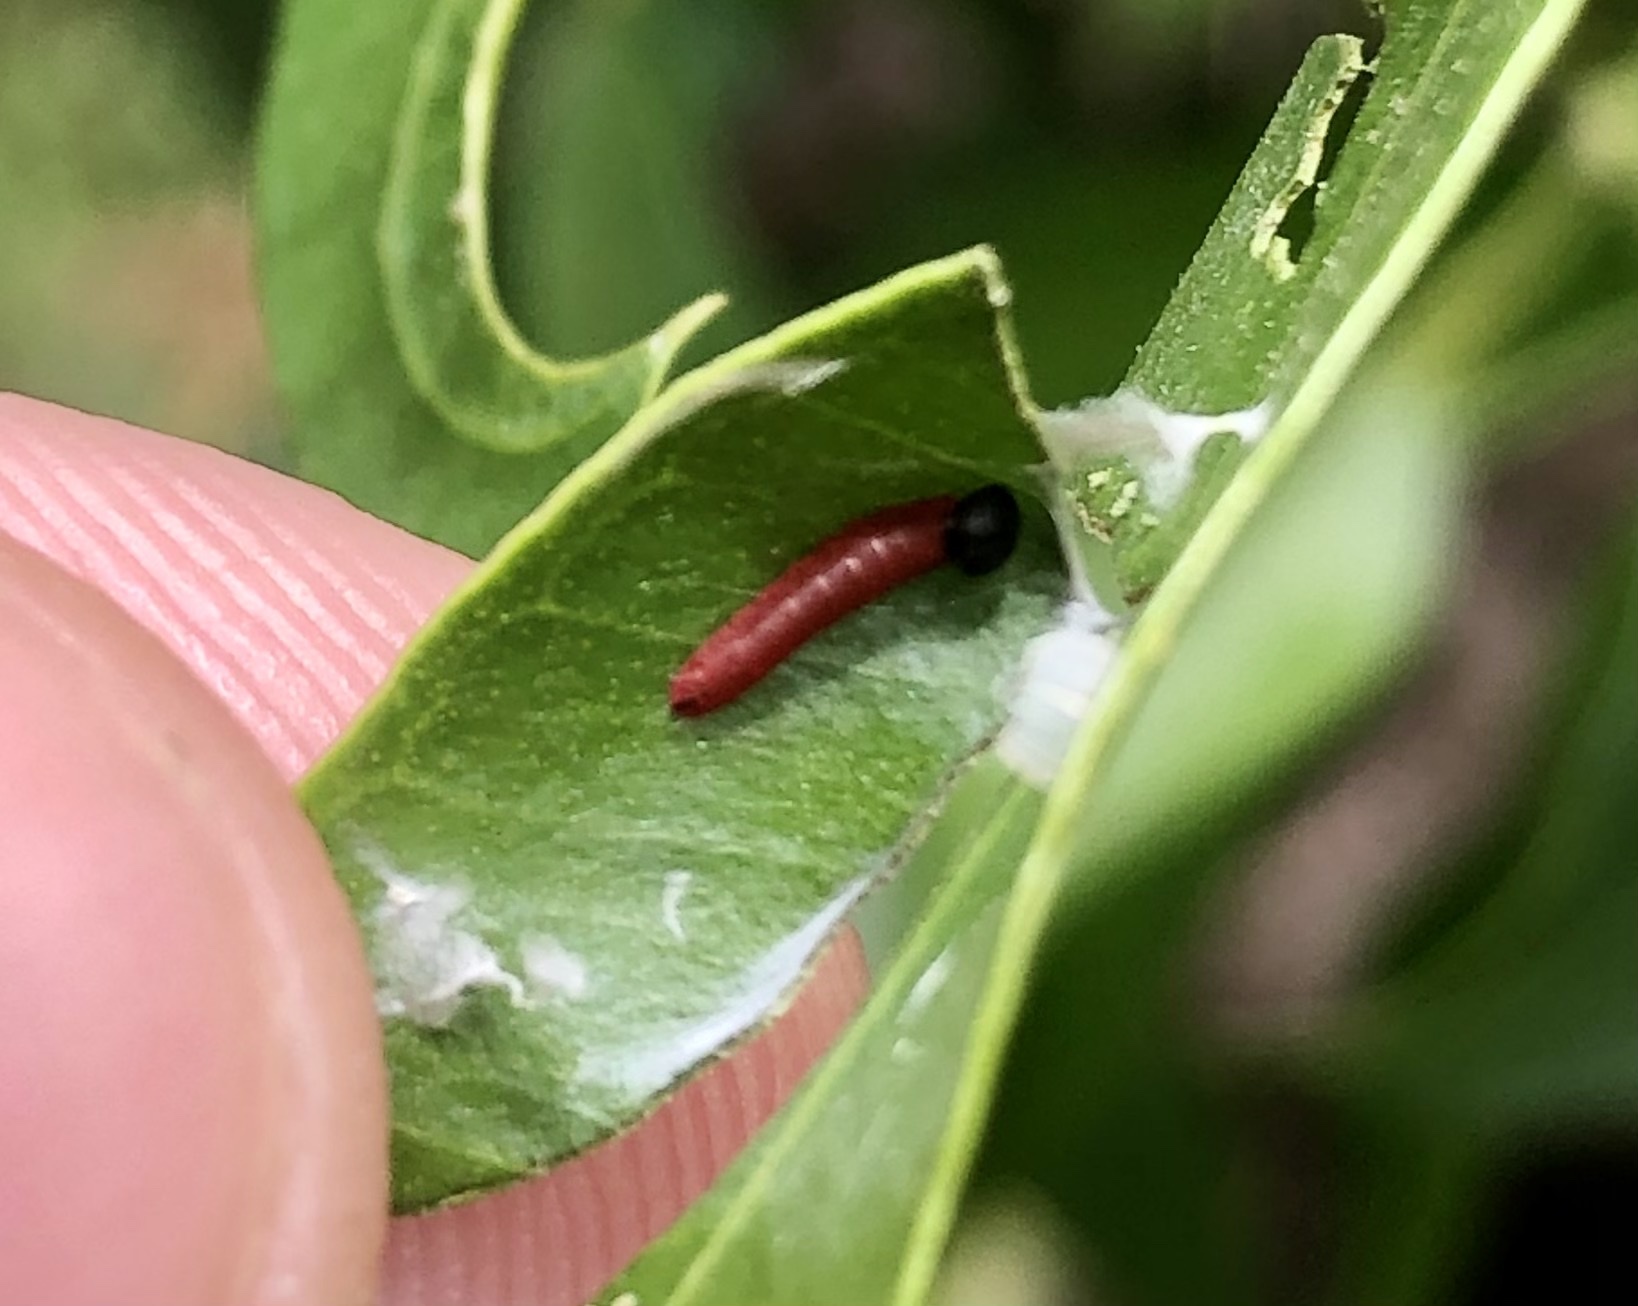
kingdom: Animalia
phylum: Arthropoda
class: Insecta
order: Lepidoptera
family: Hesperiidae
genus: Phocides
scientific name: Phocides polybius
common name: Guava skipper
